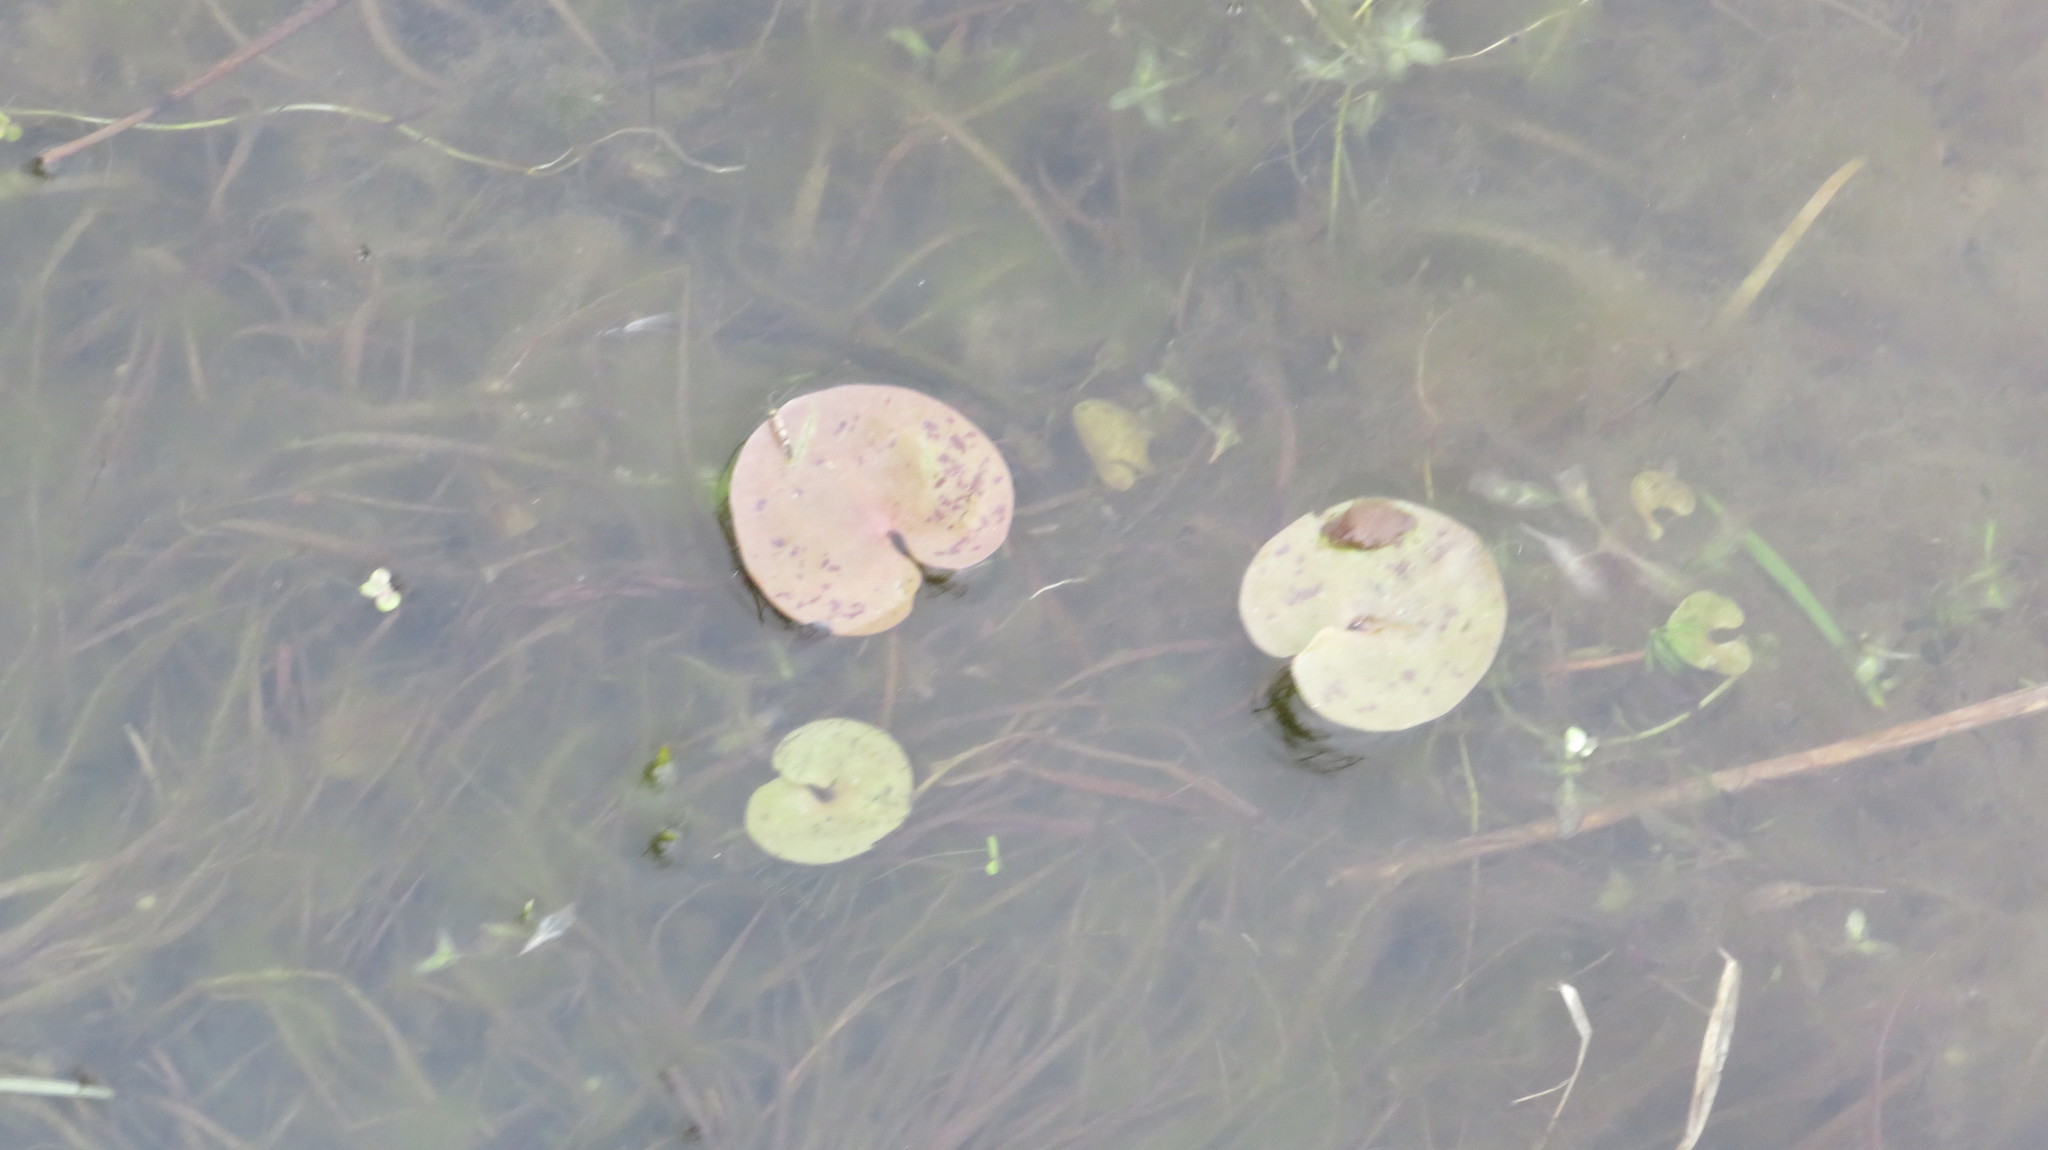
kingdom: Plantae
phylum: Tracheophyta
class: Liliopsida
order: Alismatales
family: Hydrocharitaceae
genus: Hydrocharis
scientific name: Hydrocharis morsus-ranae
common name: Frogbit
